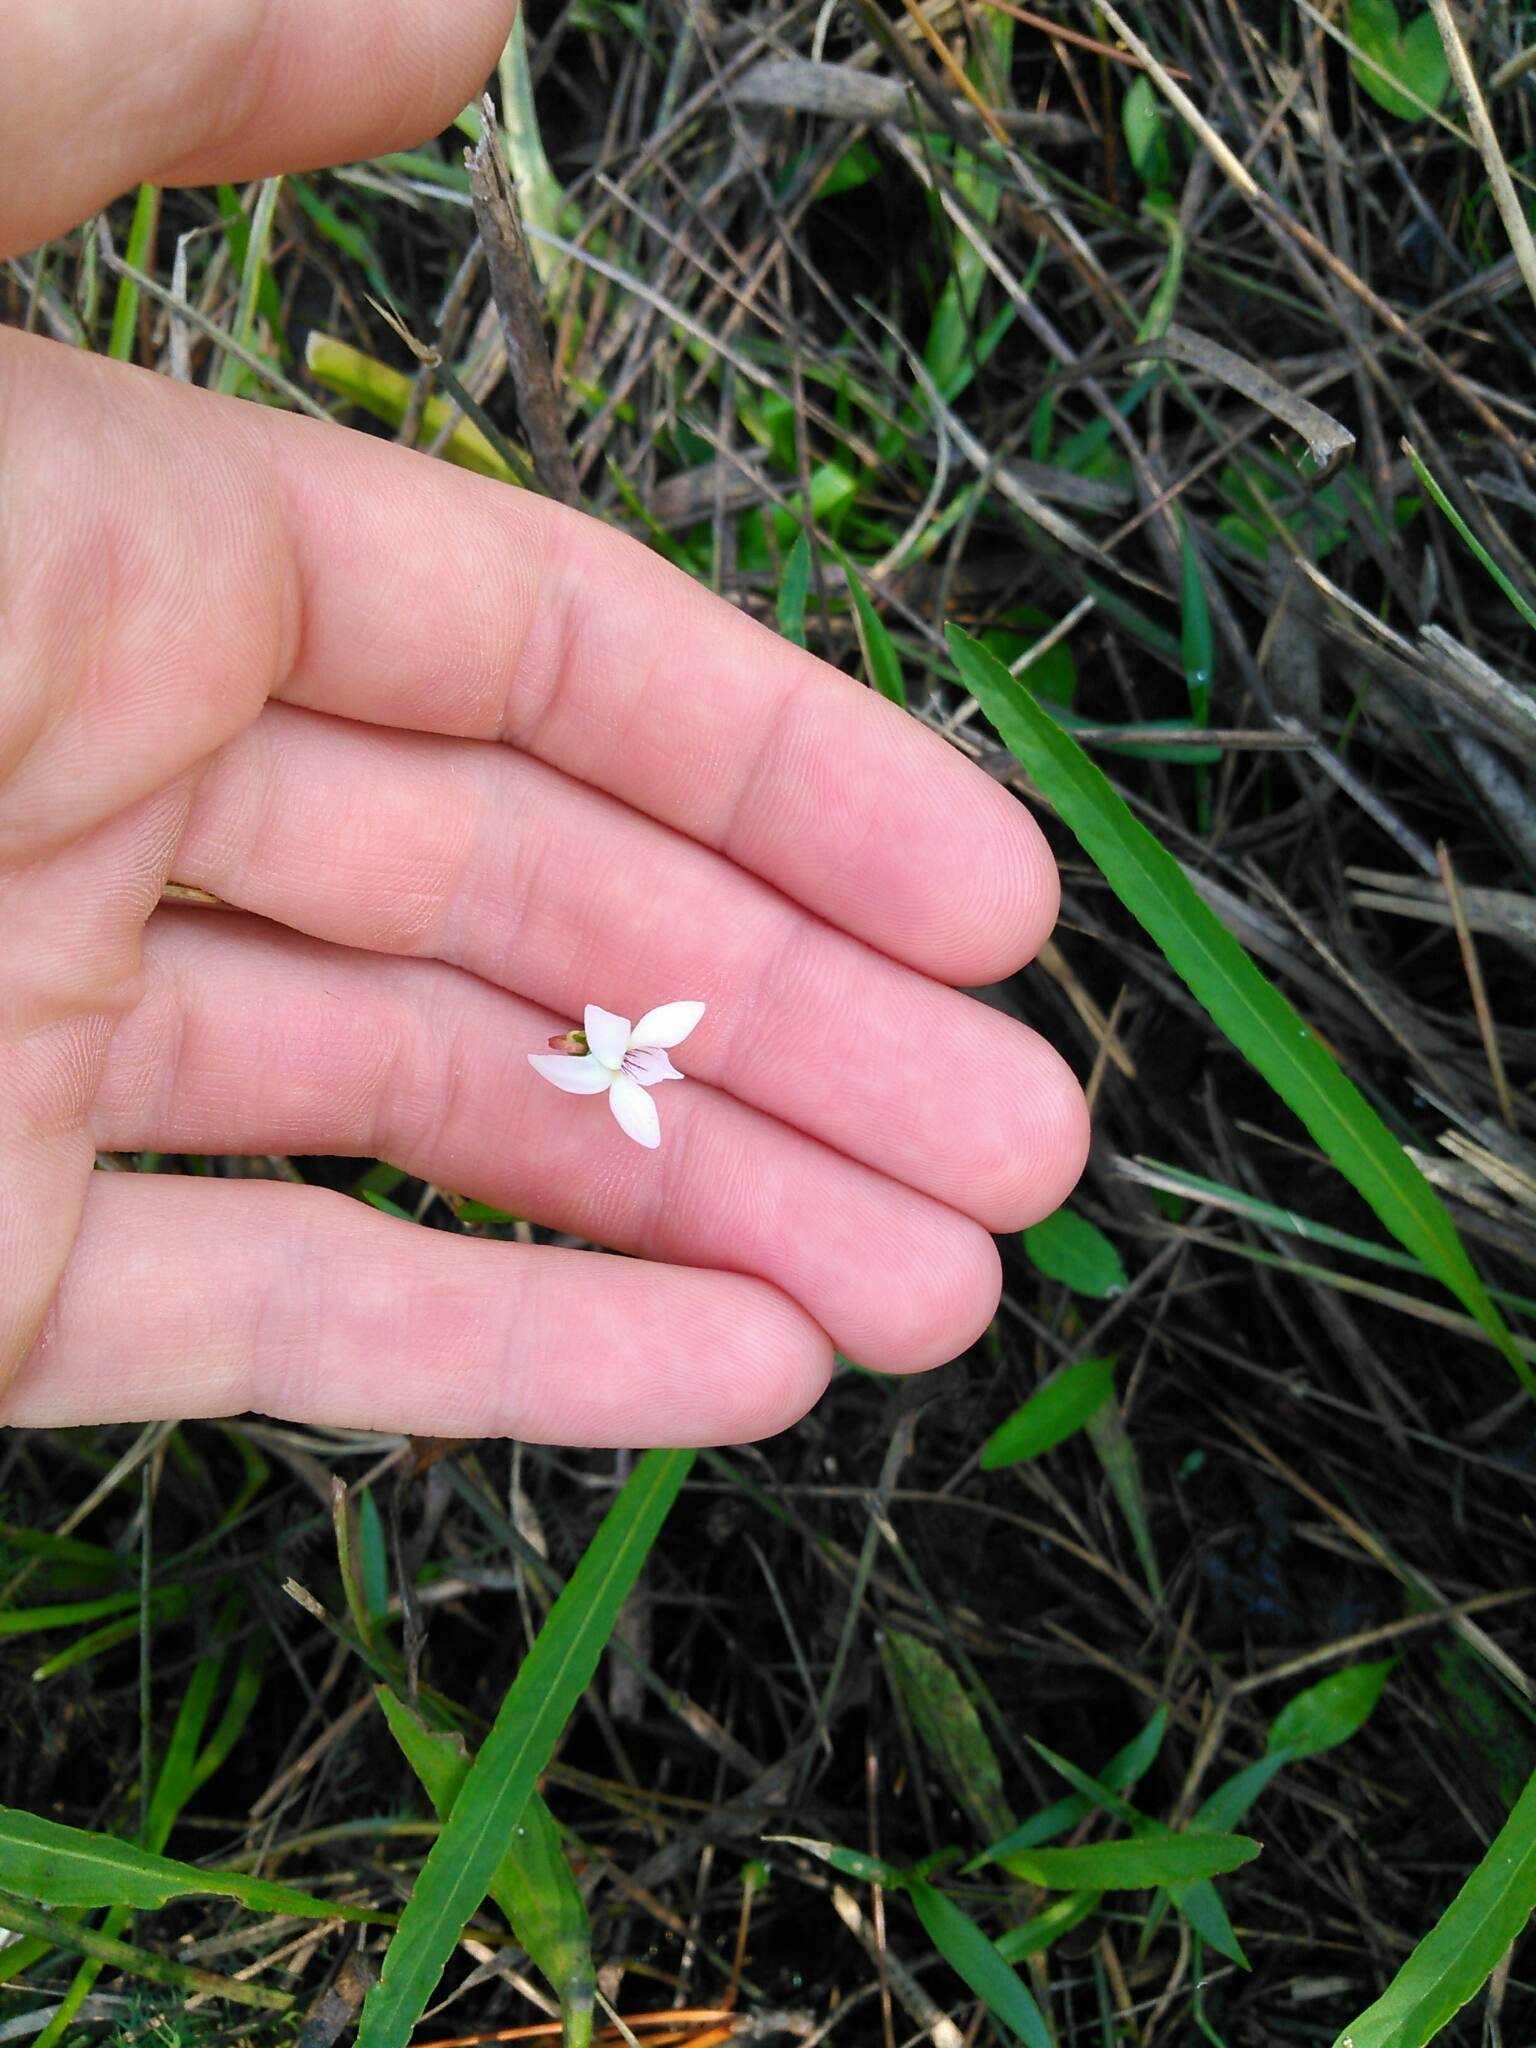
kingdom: Plantae
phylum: Tracheophyta
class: Magnoliopsida
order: Malpighiales
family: Violaceae
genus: Viola
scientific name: Viola lanceolata
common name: Bog white violet
